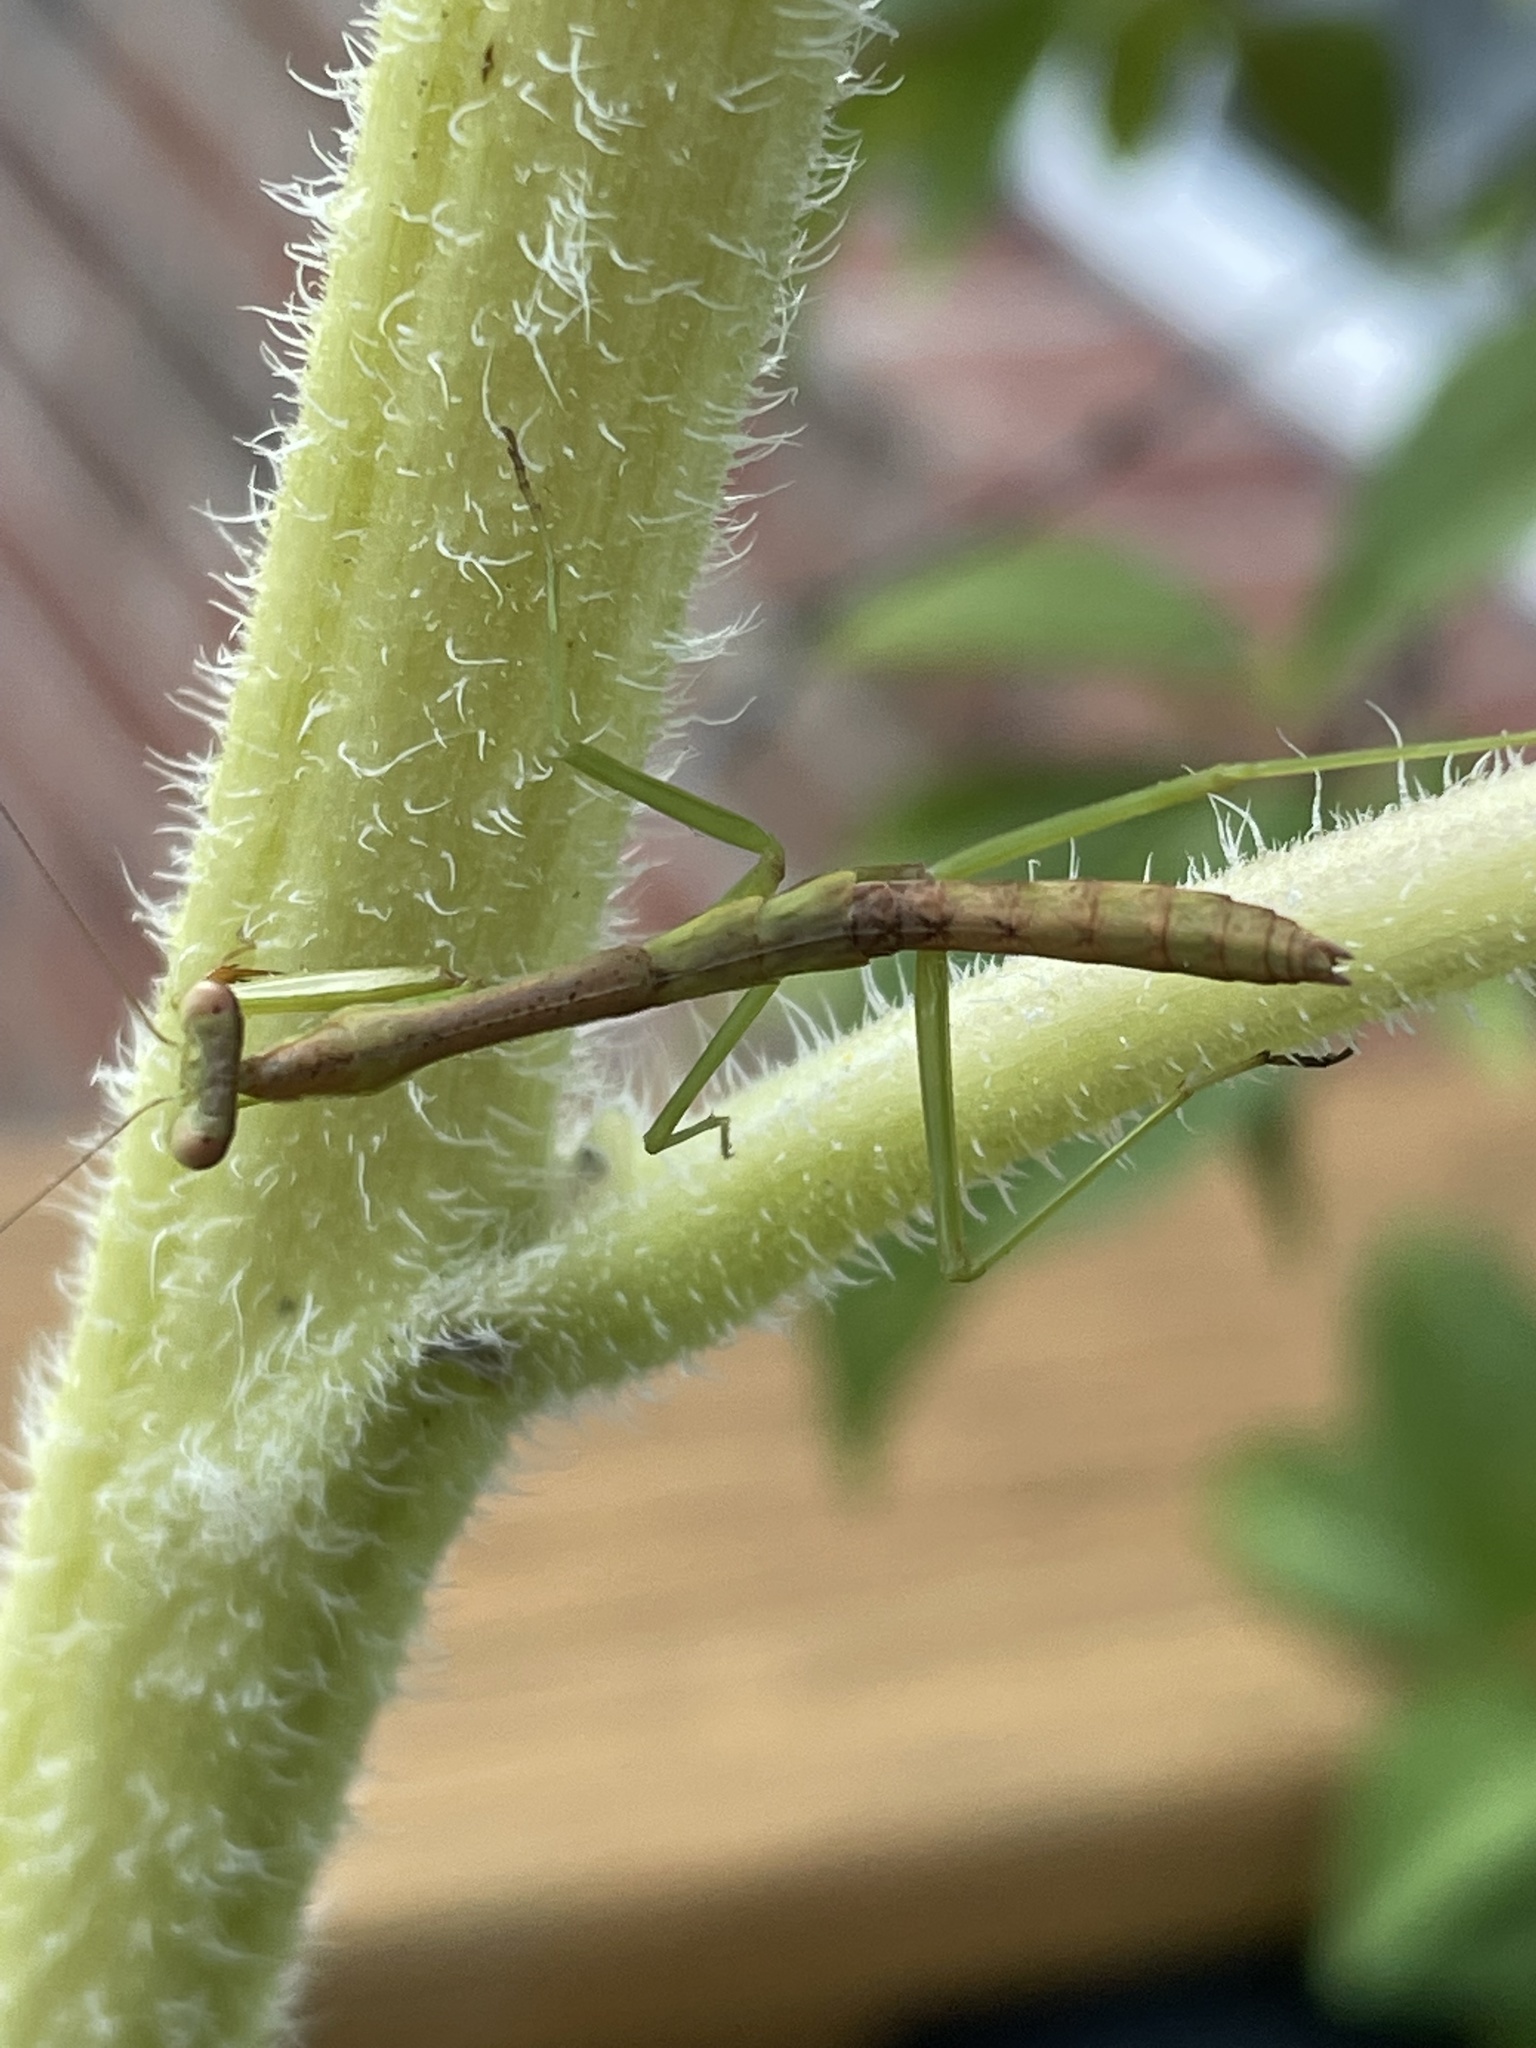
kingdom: Animalia
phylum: Arthropoda
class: Insecta
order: Mantodea
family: Mantidae
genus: Stagmomantis
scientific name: Stagmomantis carolina
